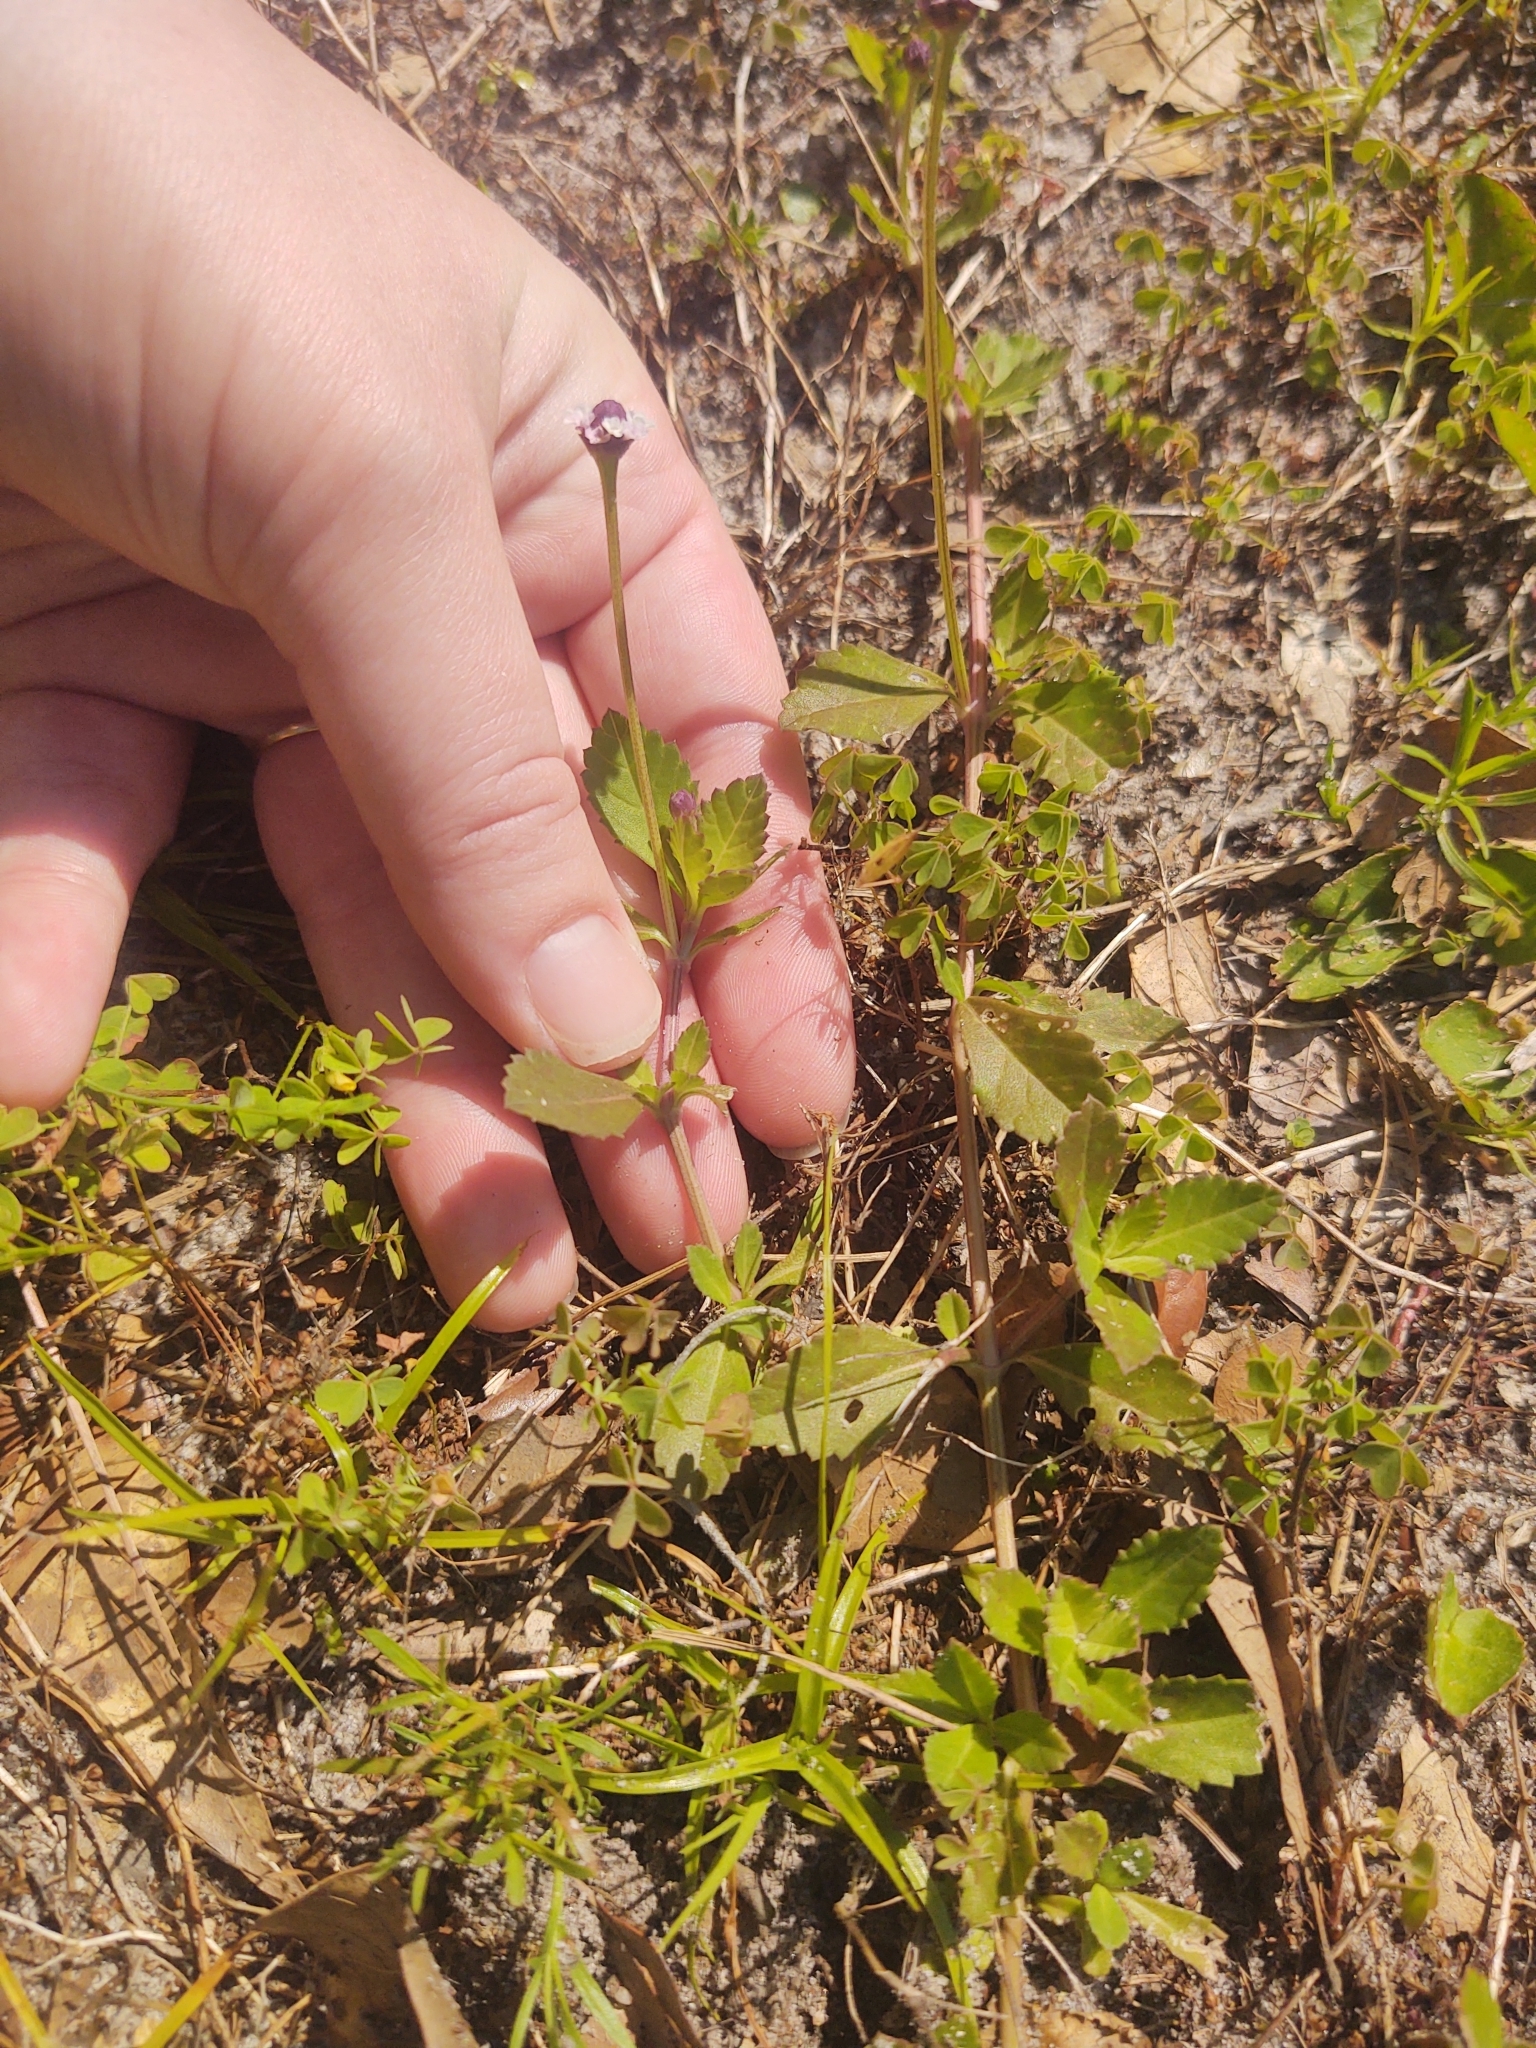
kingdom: Plantae
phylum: Tracheophyta
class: Magnoliopsida
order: Lamiales
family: Verbenaceae
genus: Phyla
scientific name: Phyla nodiflora
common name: Frogfruit
